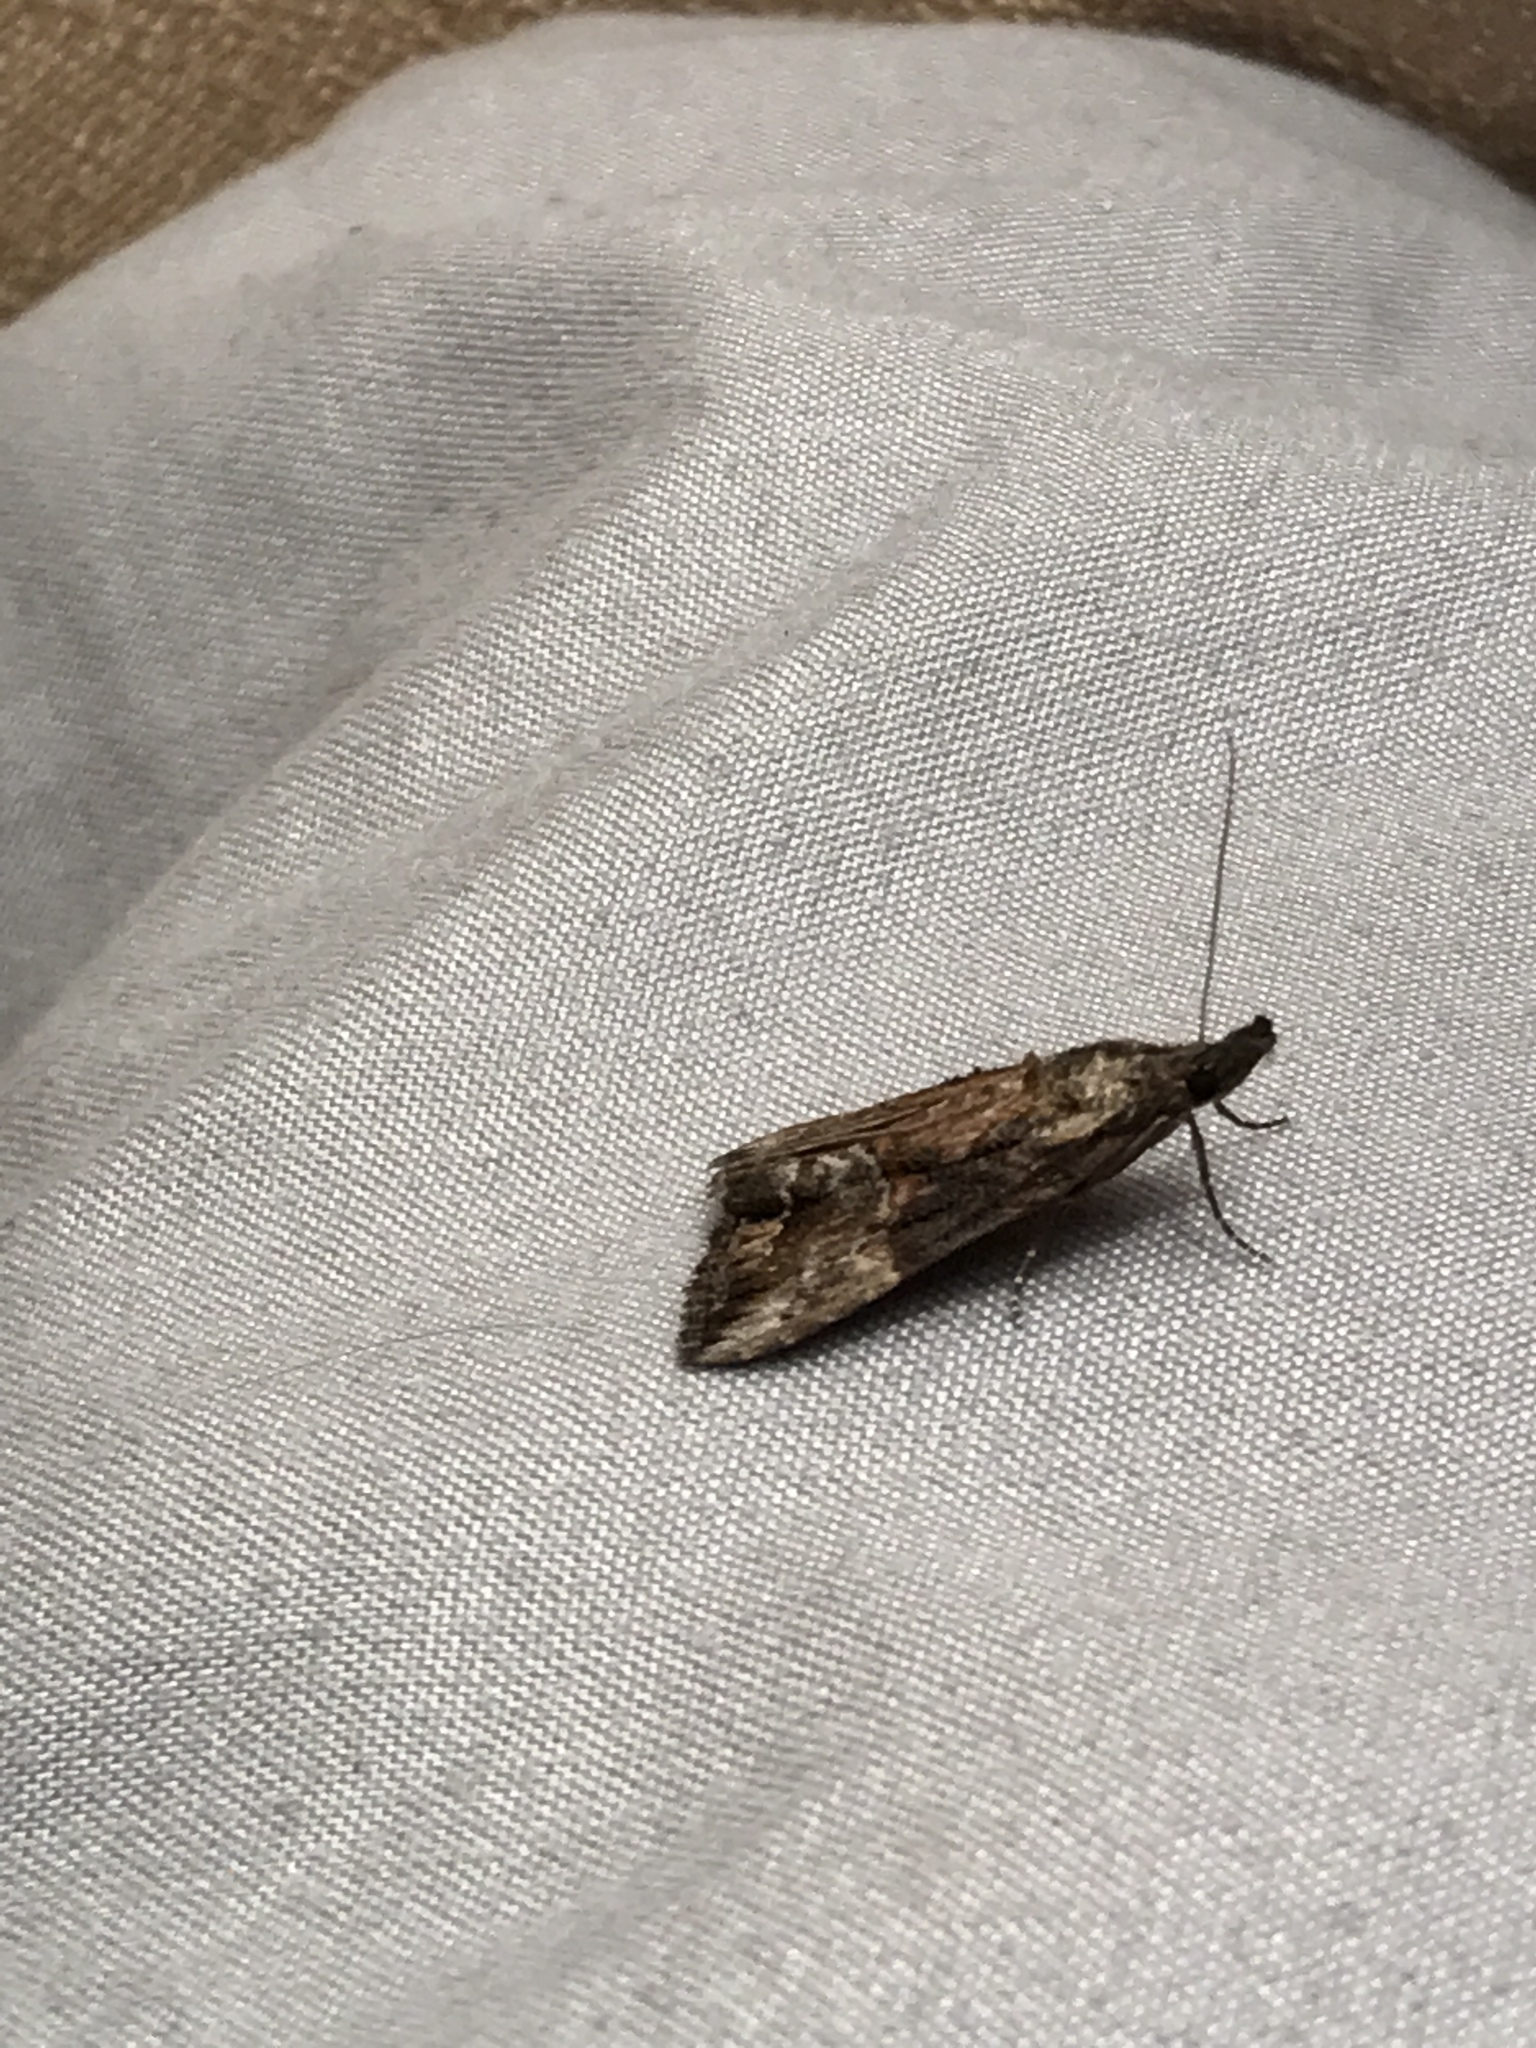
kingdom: Animalia
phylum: Arthropoda
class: Insecta
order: Lepidoptera
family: Erebidae
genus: Hypena
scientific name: Hypena scabra
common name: Green cloverworm
